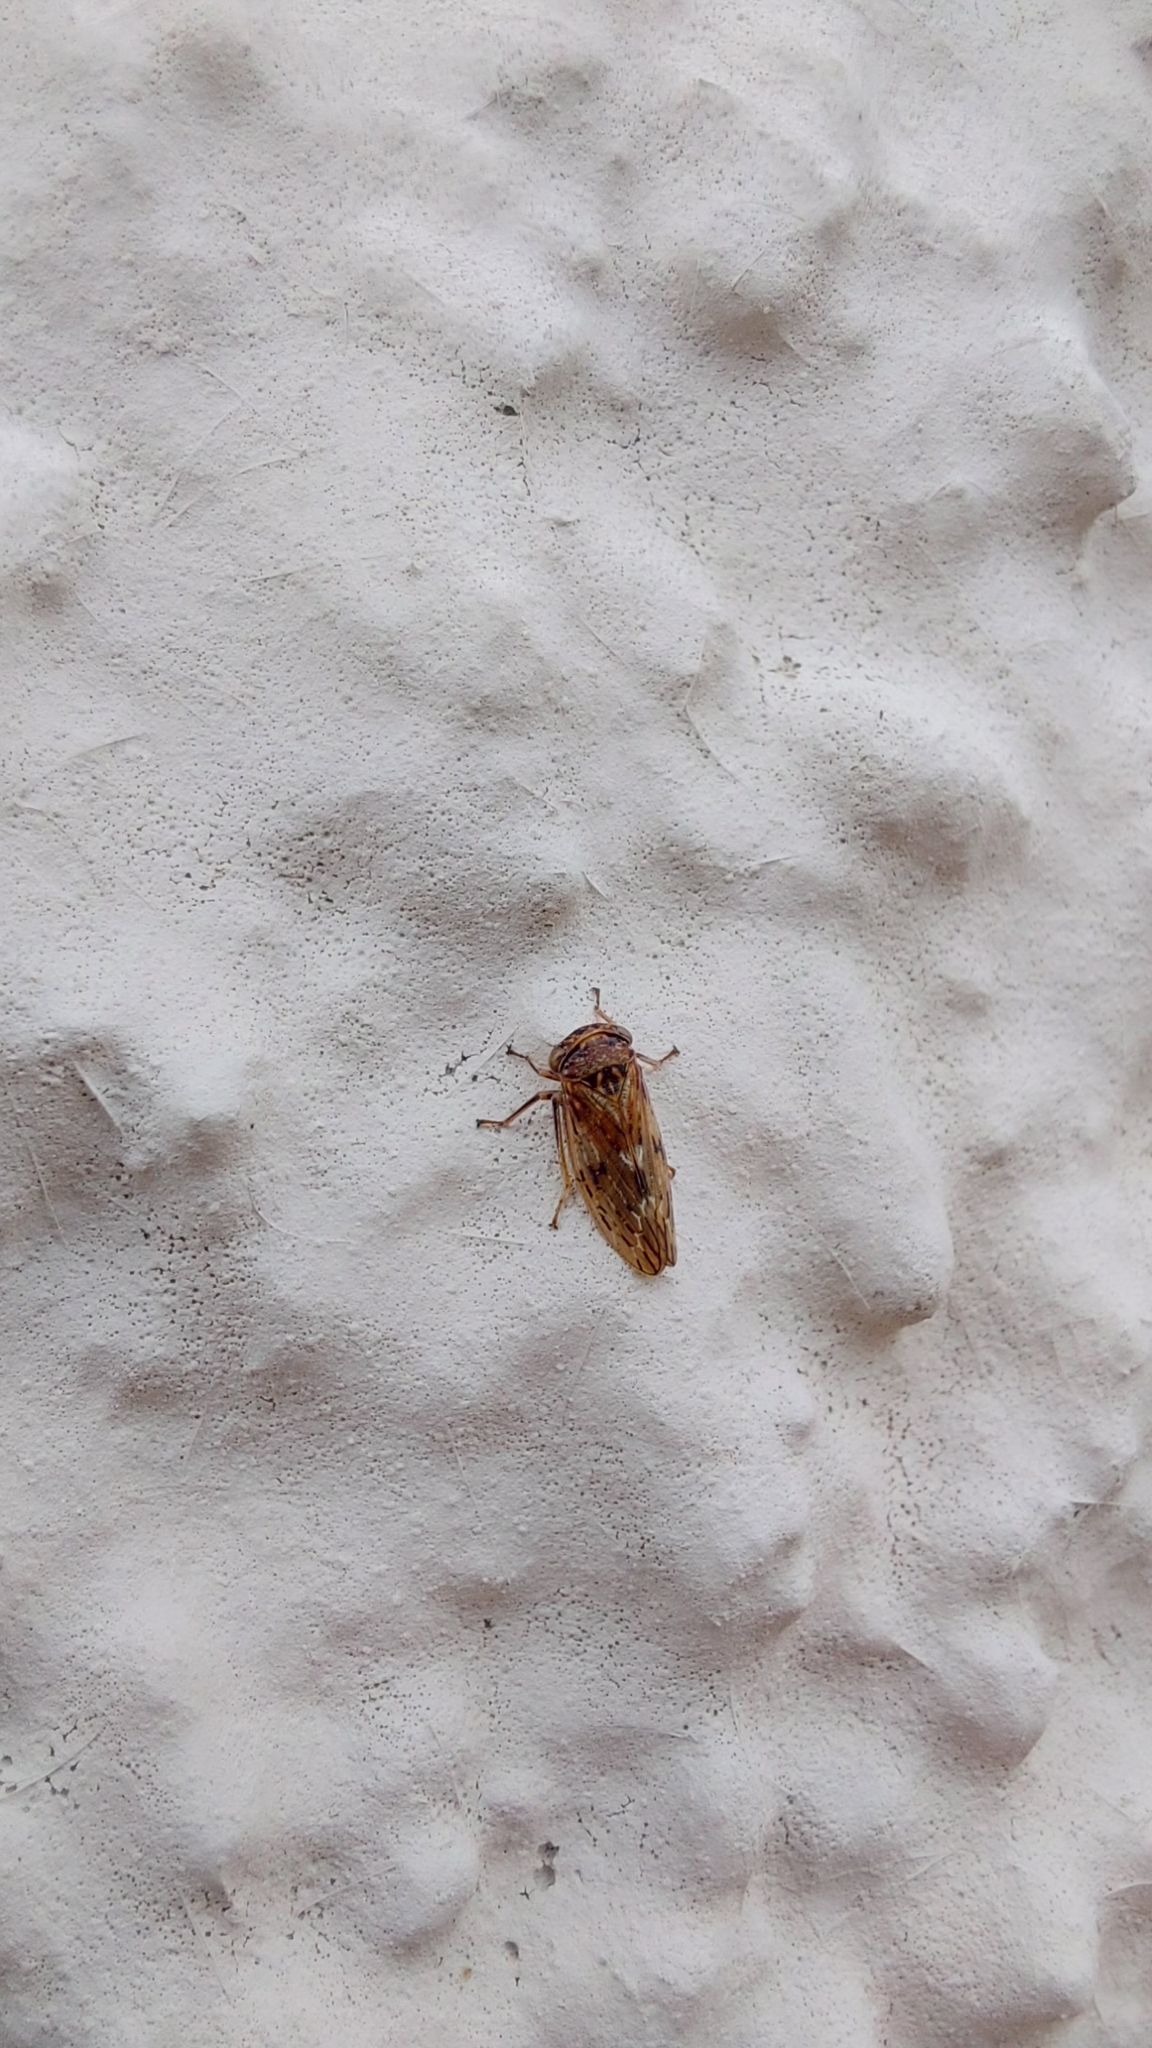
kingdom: Animalia
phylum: Arthropoda
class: Insecta
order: Hemiptera
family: Cicadellidae
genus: Rhytidodus
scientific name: Rhytidodus decimusquartus
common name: Leafhopper
